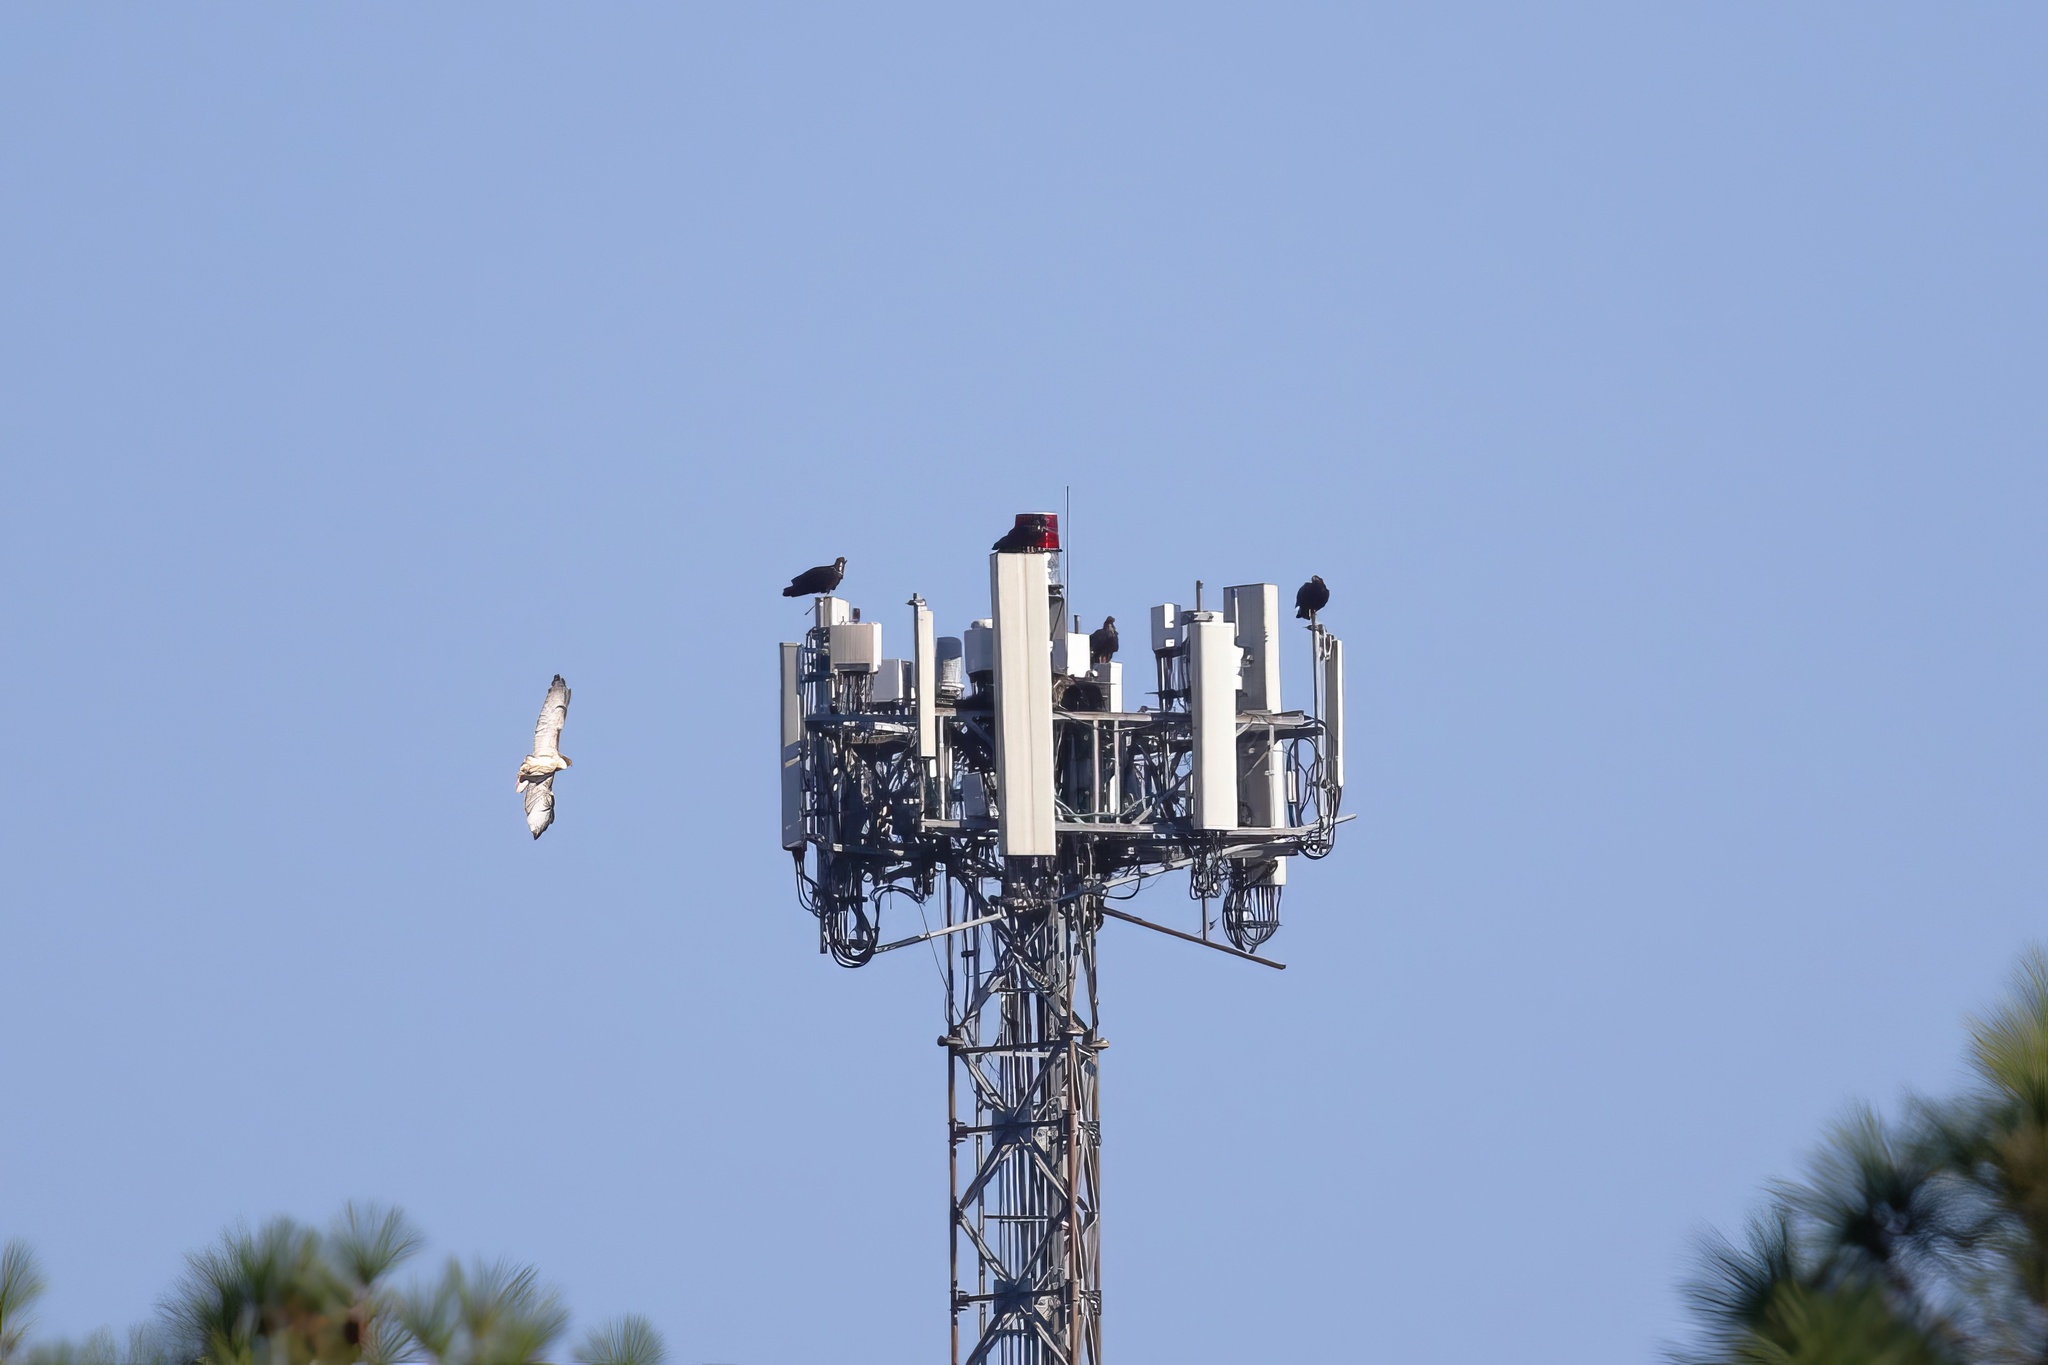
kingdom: Animalia
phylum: Chordata
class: Aves
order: Accipitriformes
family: Accipitridae
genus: Buteo
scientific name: Buteo jamaicensis
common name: Red-tailed hawk
